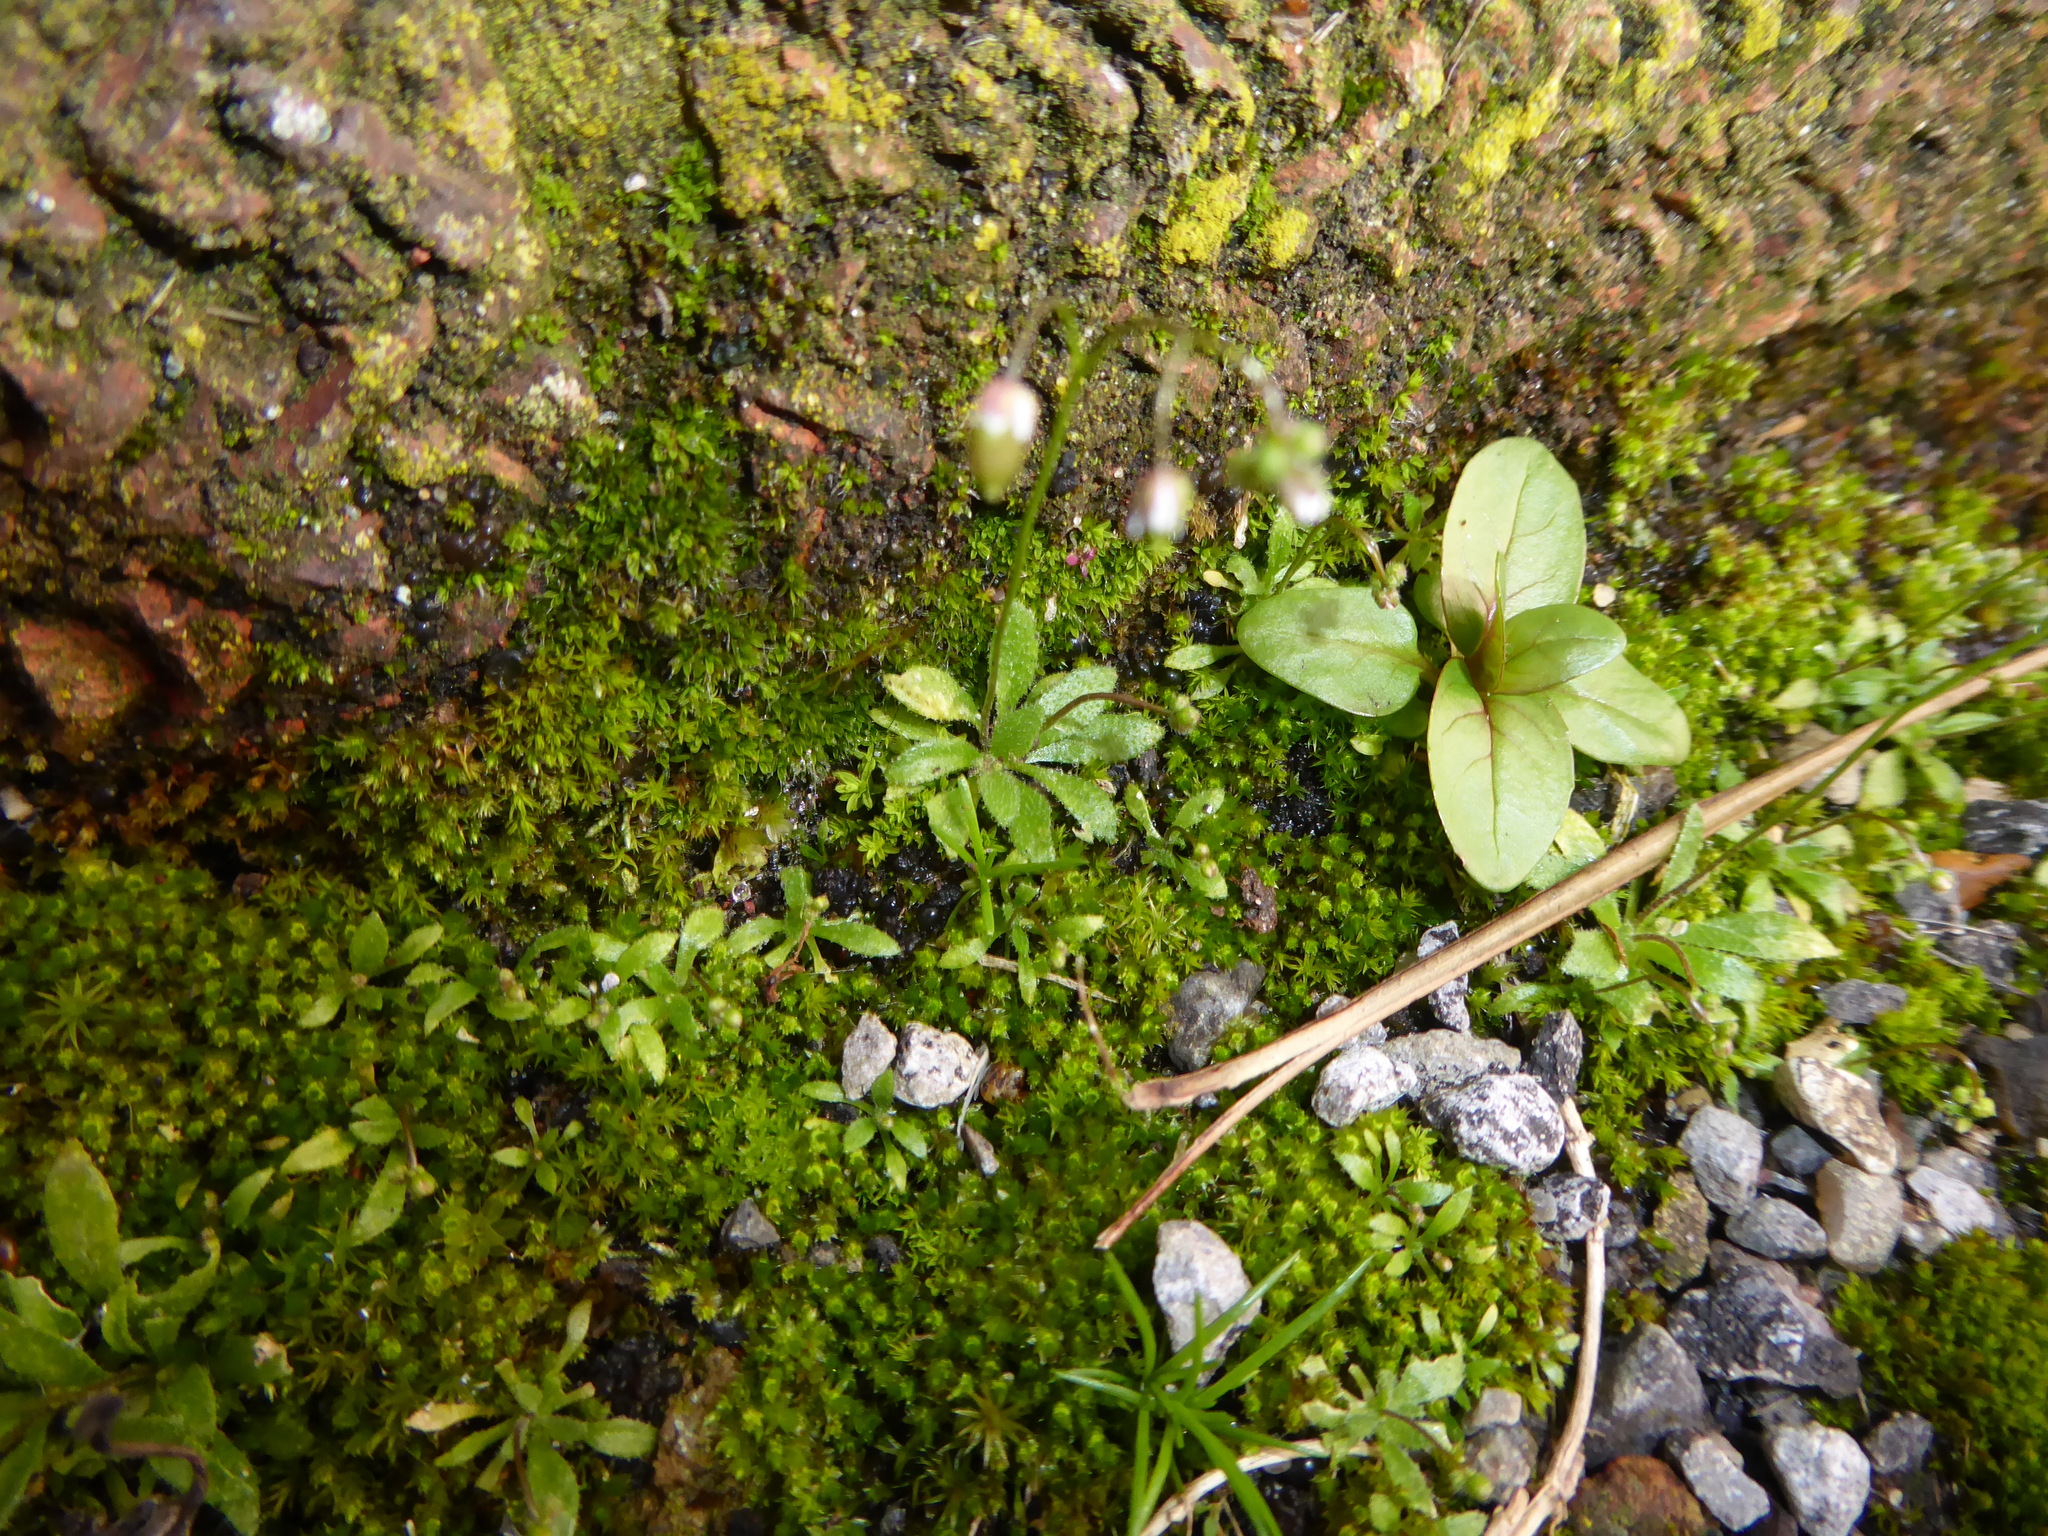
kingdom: Plantae
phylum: Tracheophyta
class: Magnoliopsida
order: Brassicales
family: Brassicaceae
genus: Draba
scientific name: Draba verna
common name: Spring draba
